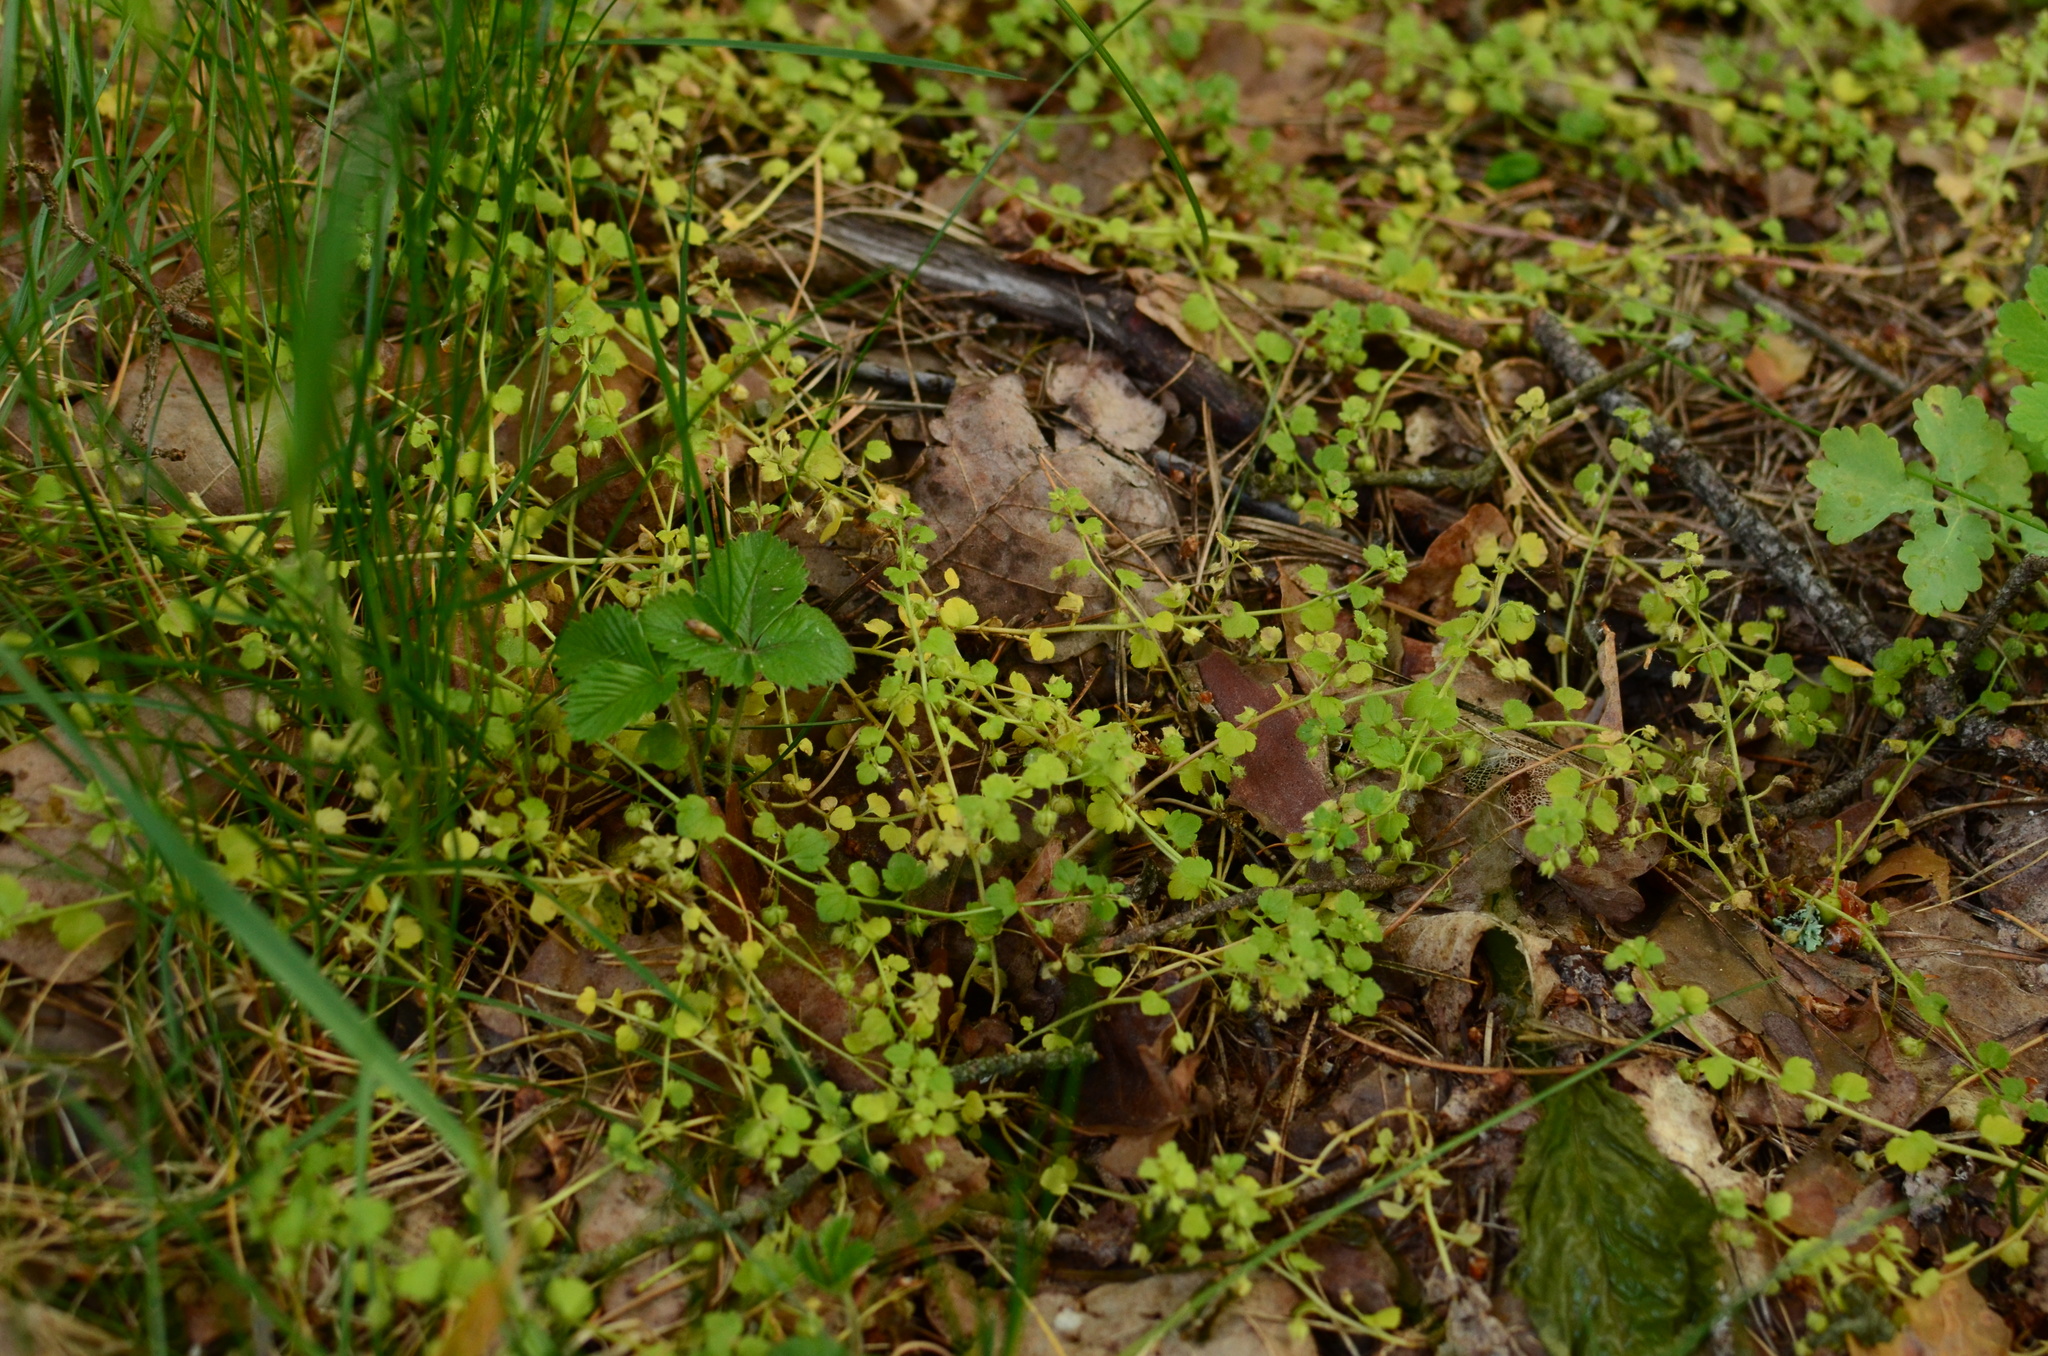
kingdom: Plantae
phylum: Tracheophyta
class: Magnoliopsida
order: Lamiales
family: Plantaginaceae
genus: Veronica
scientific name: Veronica hederifolia
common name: Ivy-leaved speedwell
